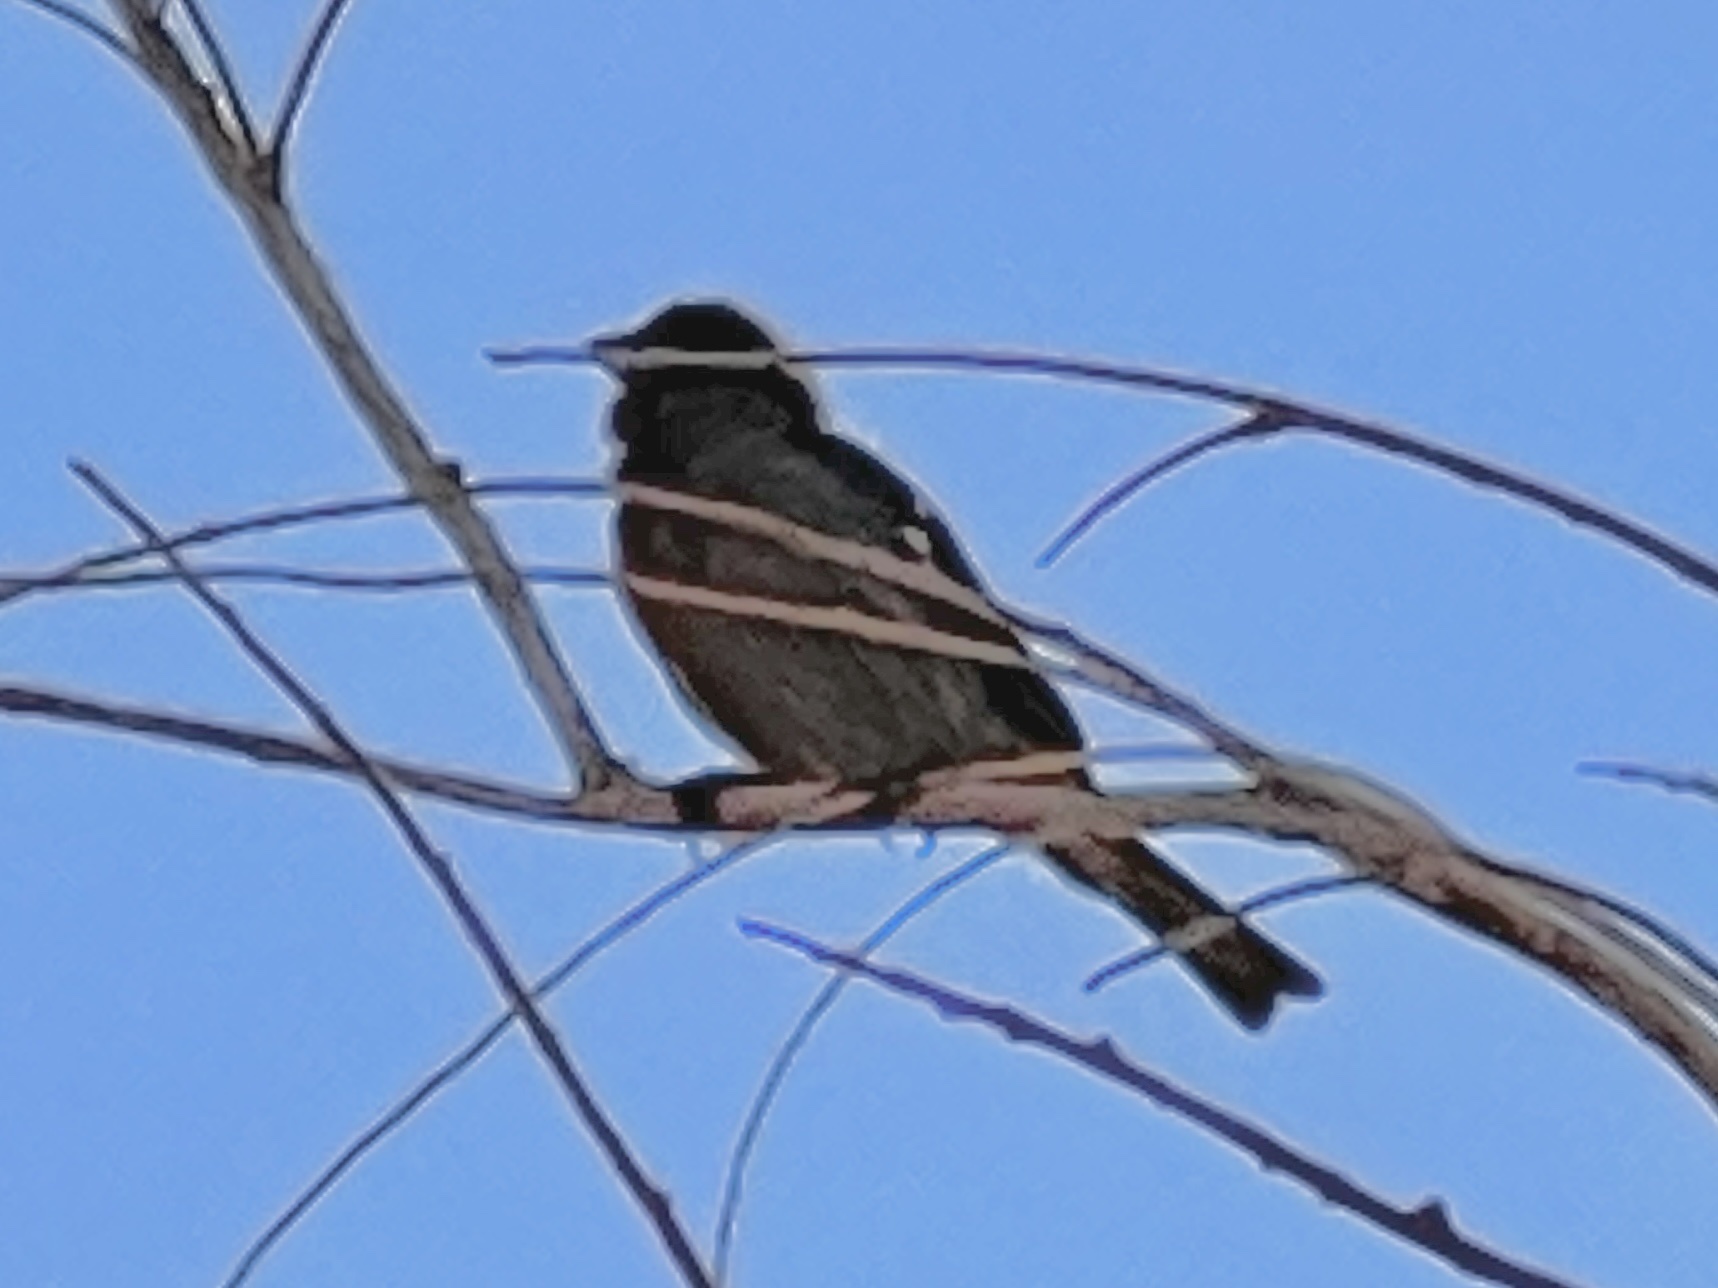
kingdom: Animalia
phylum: Chordata
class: Aves
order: Passeriformes
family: Passeridae
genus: Passer
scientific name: Passer domesticus
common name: House sparrow
